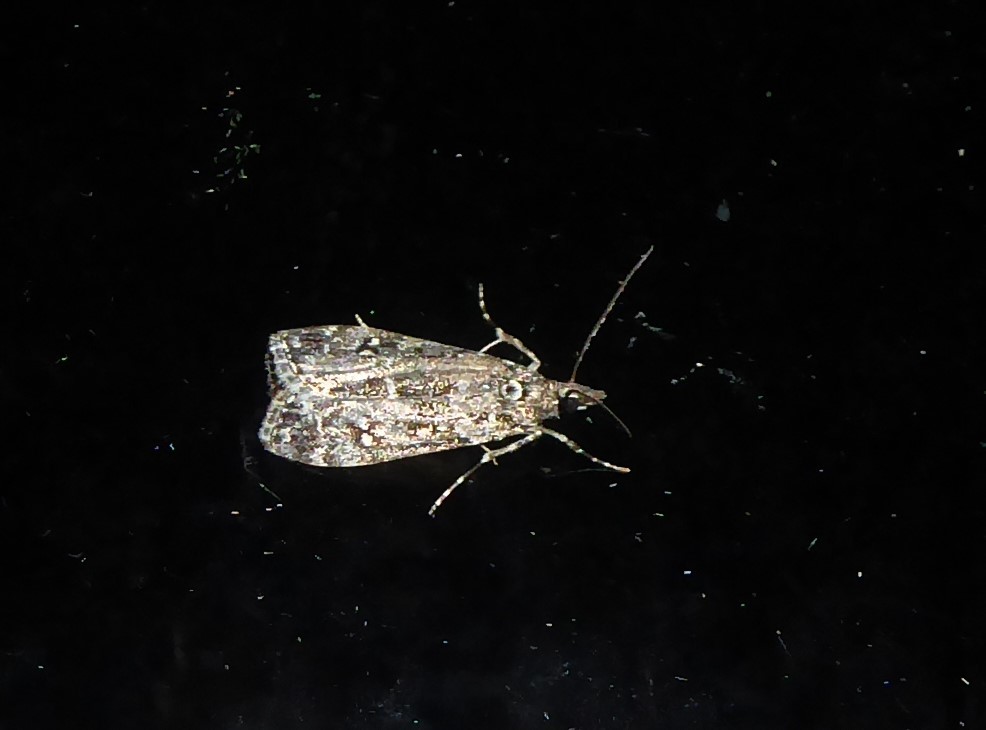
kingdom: Animalia
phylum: Arthropoda
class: Insecta
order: Lepidoptera
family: Crambidae
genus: Eudonia
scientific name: Eudonia philerga
